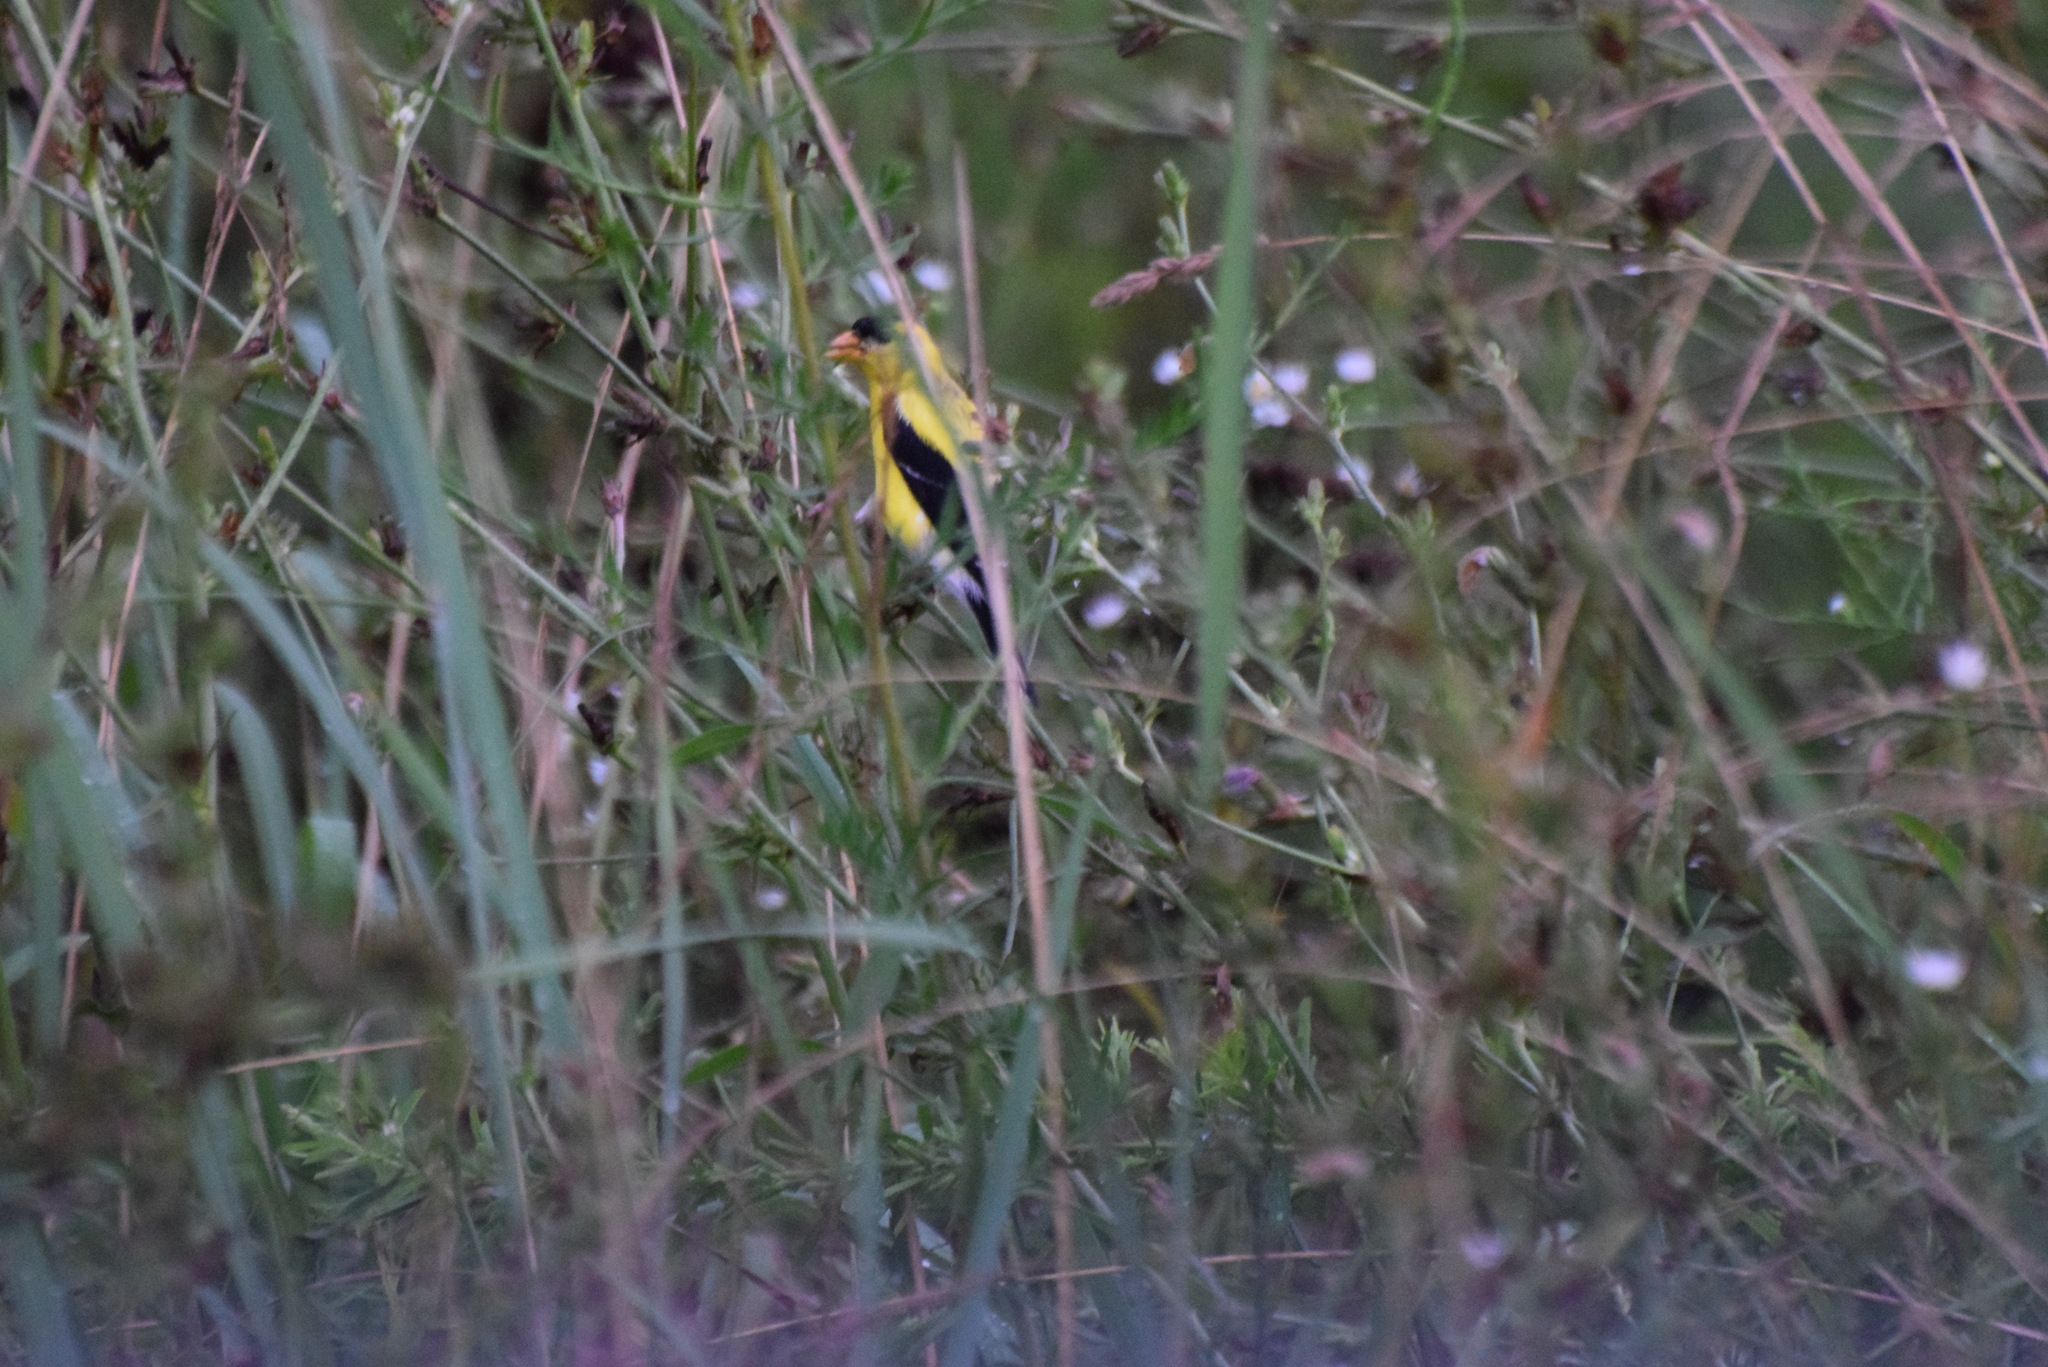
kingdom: Animalia
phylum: Chordata
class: Aves
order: Passeriformes
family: Fringillidae
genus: Spinus
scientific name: Spinus tristis
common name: American goldfinch
